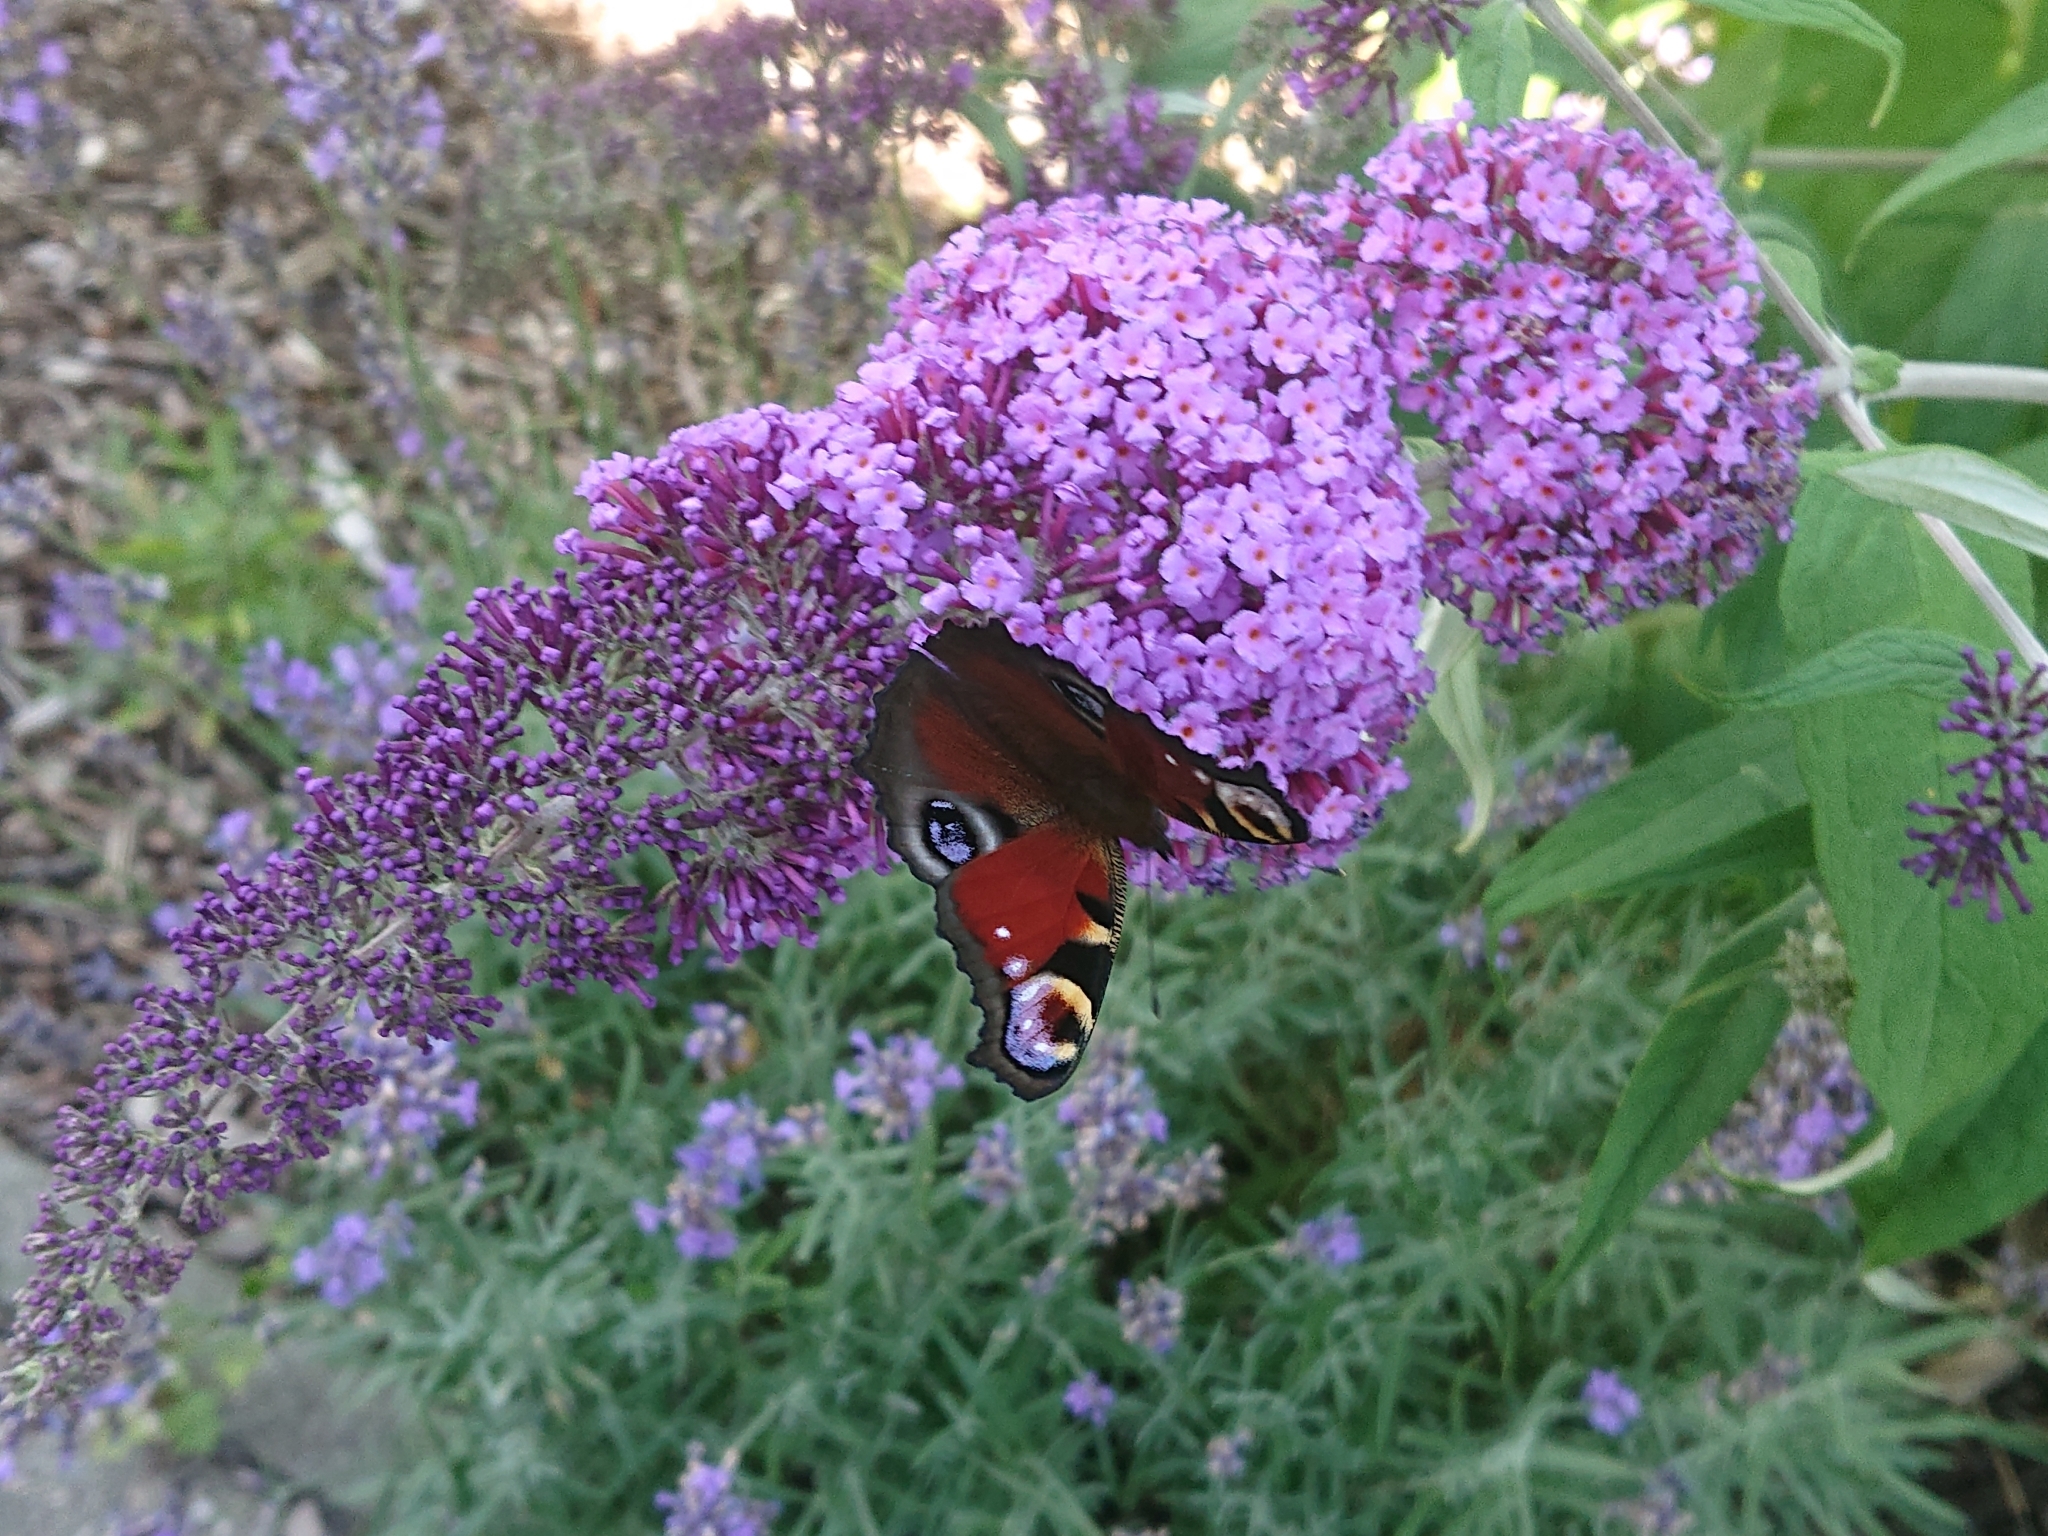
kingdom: Animalia
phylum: Arthropoda
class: Insecta
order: Lepidoptera
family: Nymphalidae
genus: Aglais
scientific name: Aglais io
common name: Peacock
